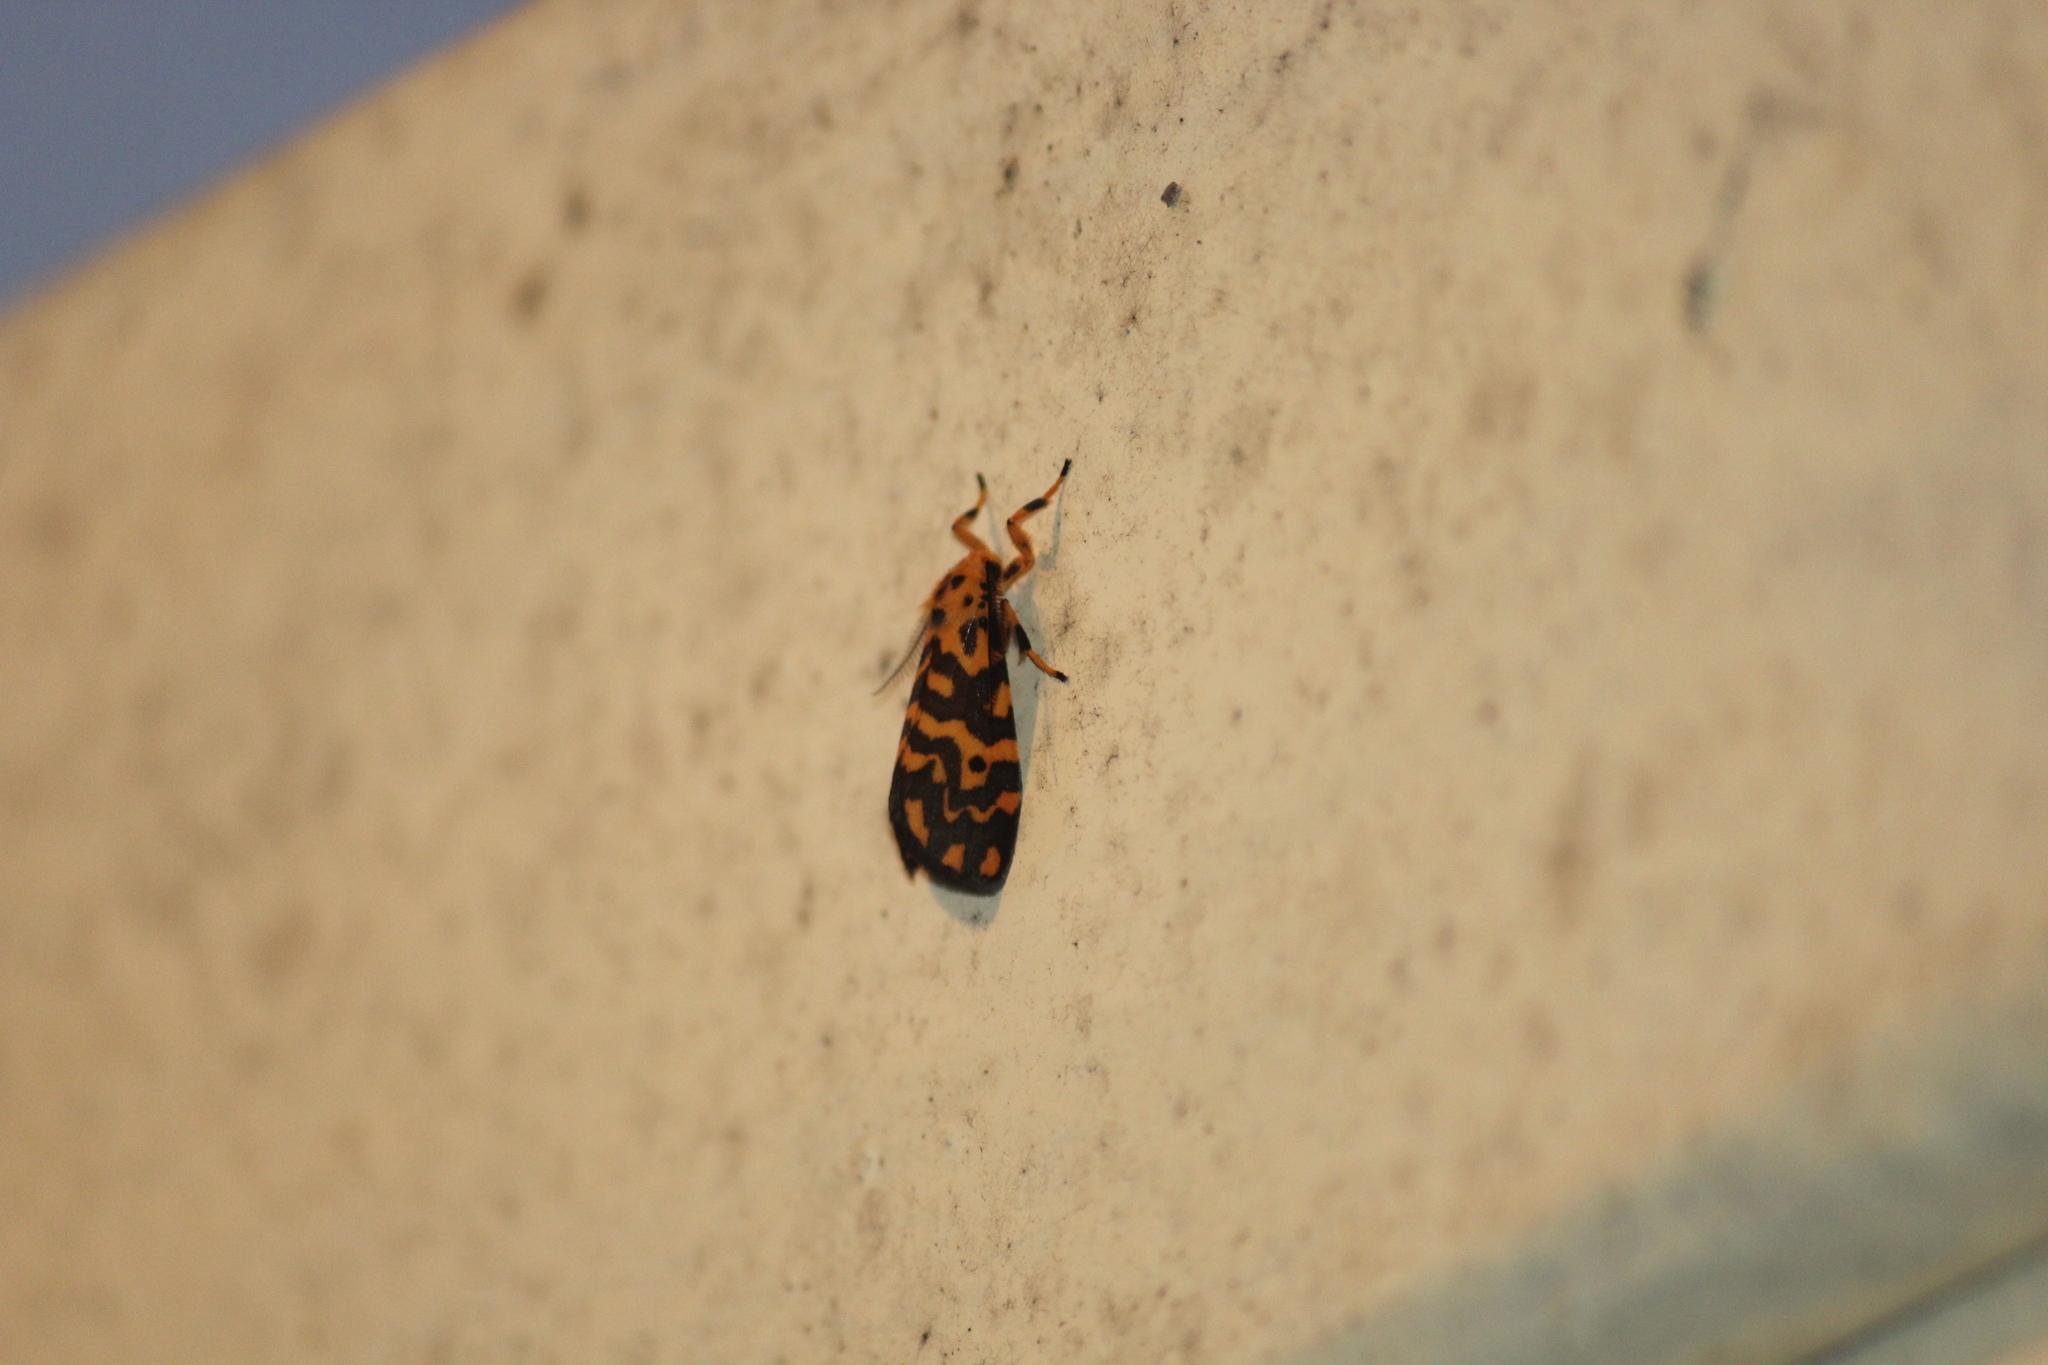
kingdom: Animalia
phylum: Arthropoda
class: Insecta
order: Lepidoptera
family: Erebidae
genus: Nepita
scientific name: Nepita conferta
